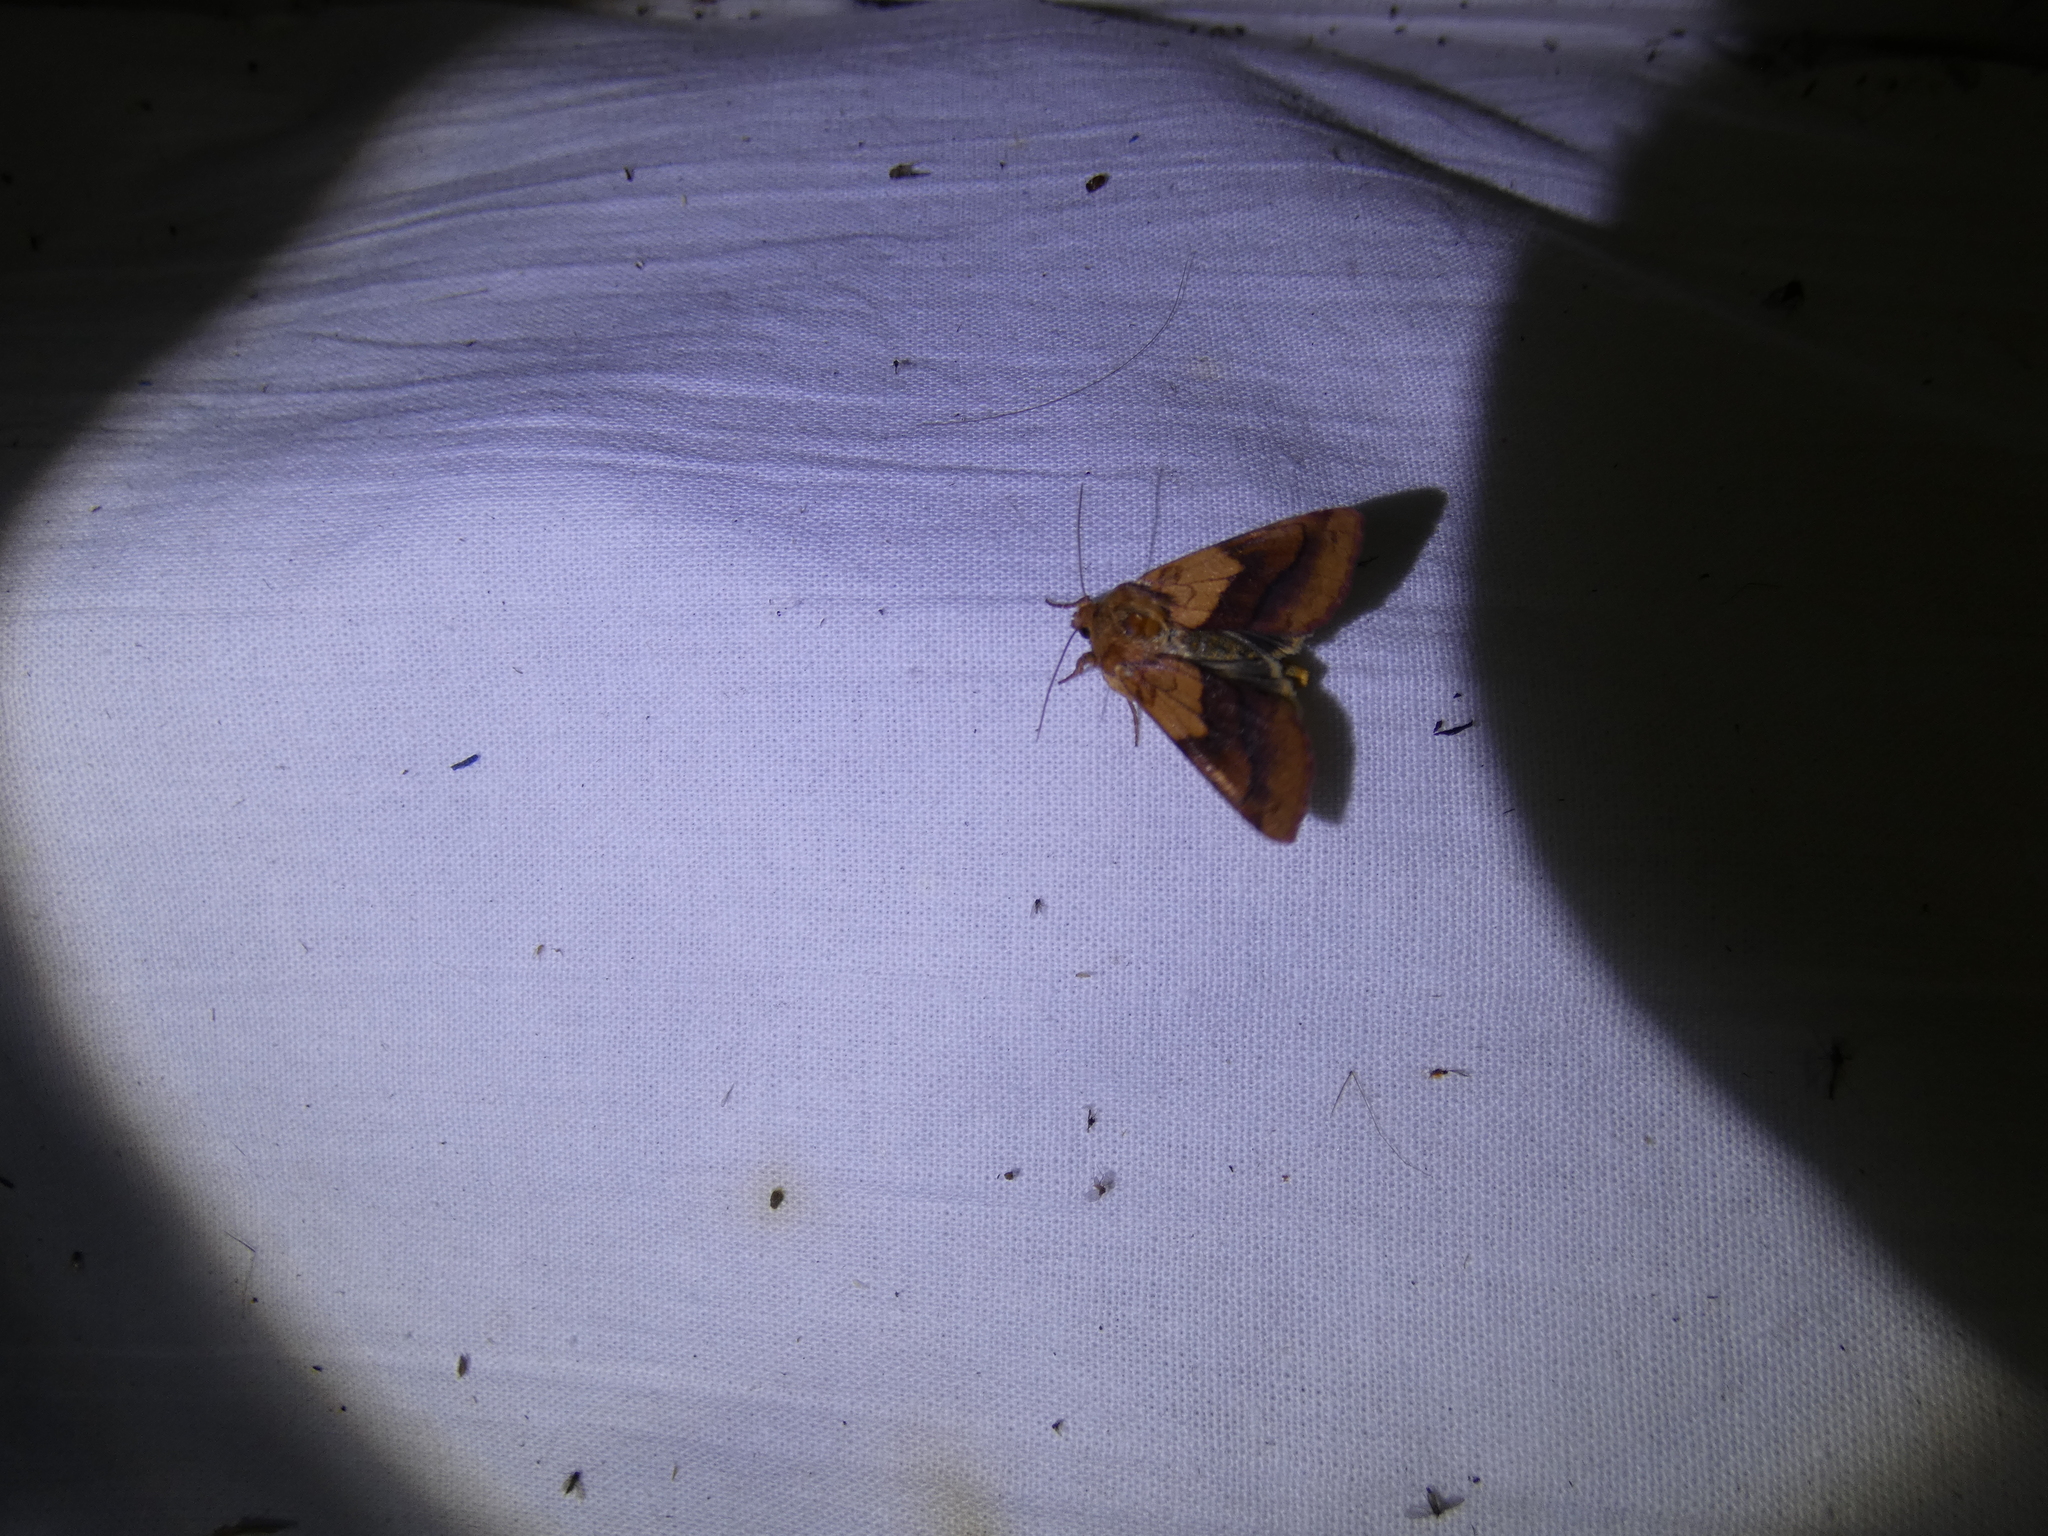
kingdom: Animalia
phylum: Arthropoda
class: Insecta
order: Lepidoptera
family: Noctuidae
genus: Pyrrhia
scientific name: Pyrrhia exprimens
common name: Purple-lined sallow
